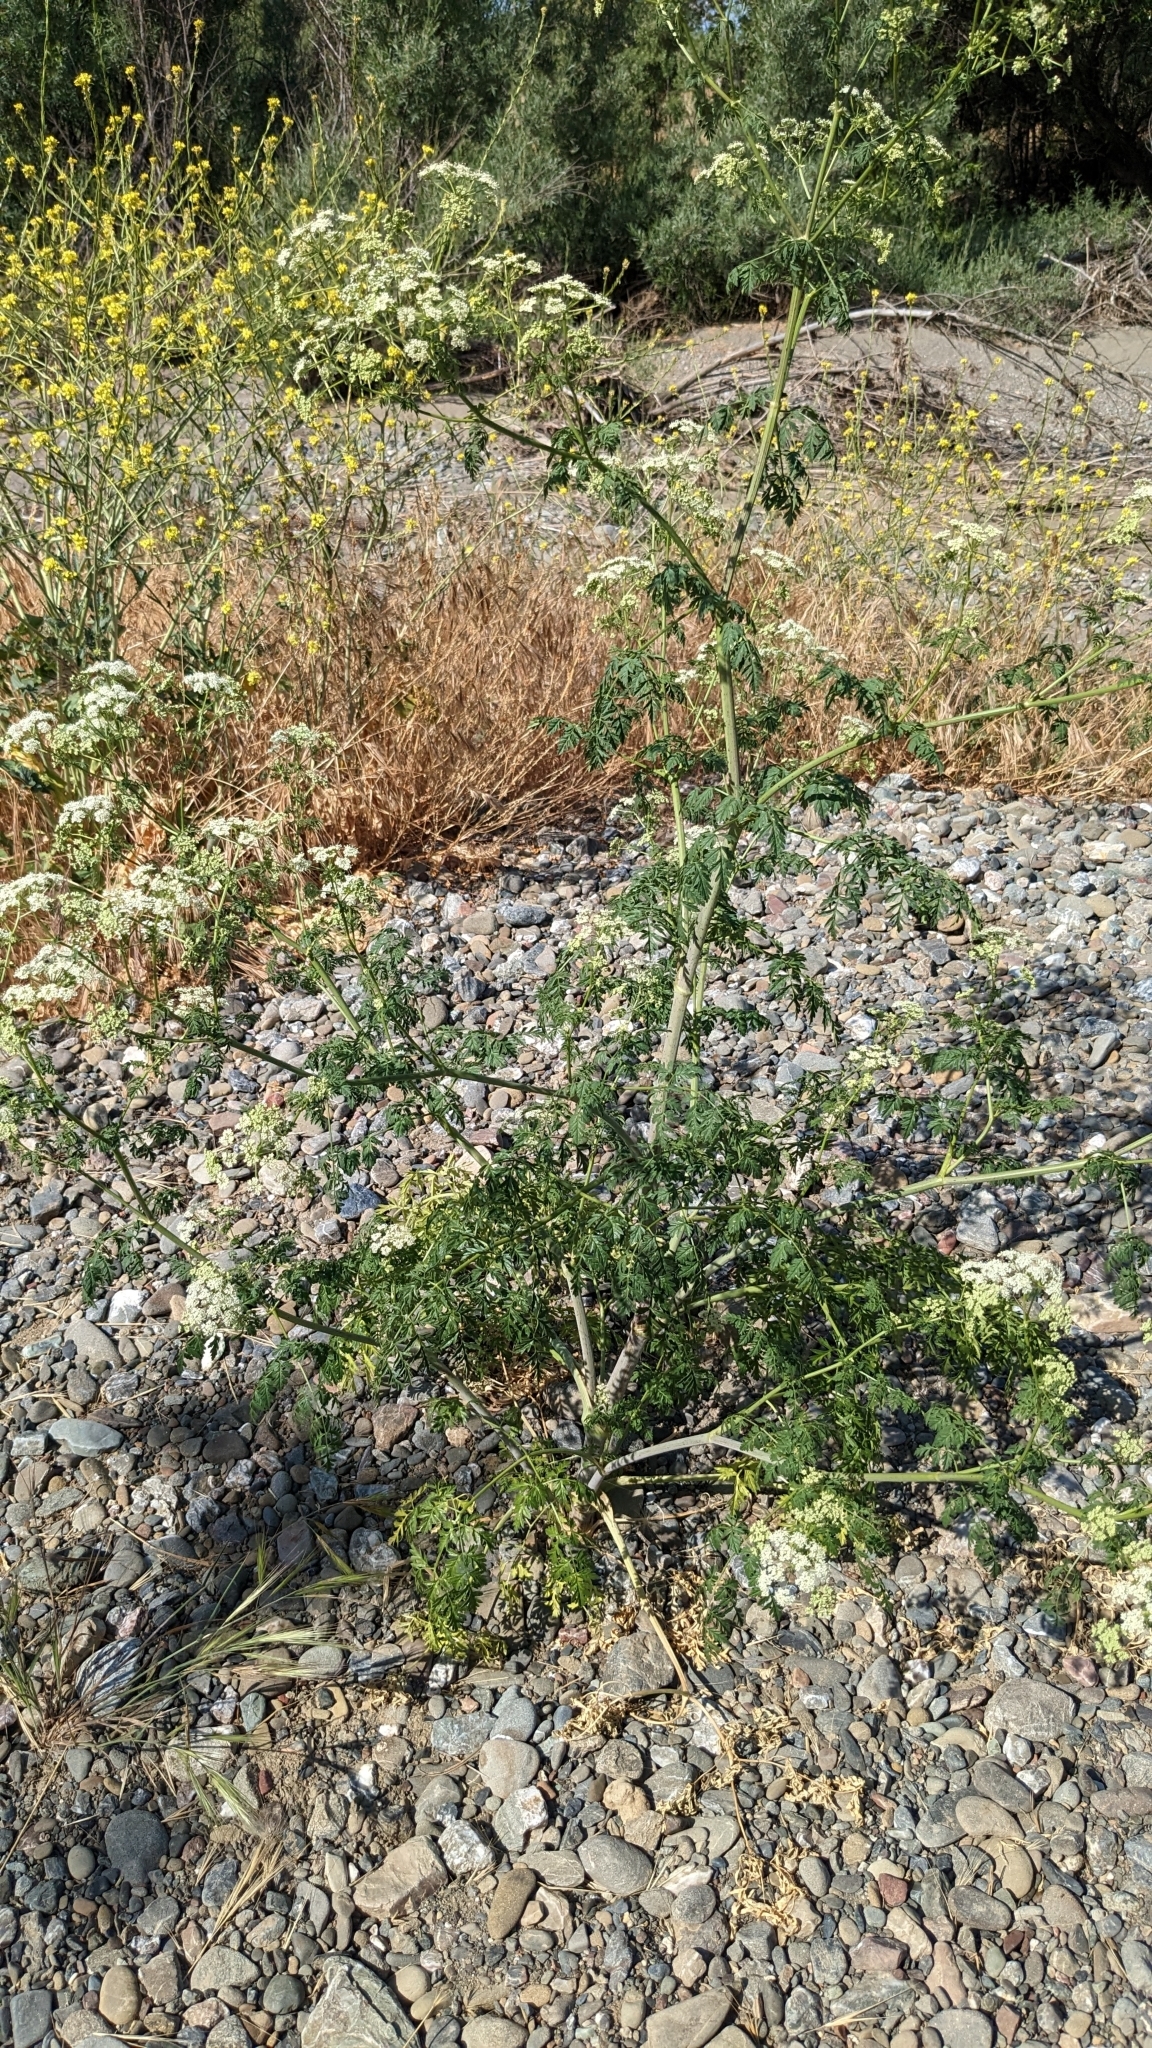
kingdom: Plantae
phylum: Tracheophyta
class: Magnoliopsida
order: Apiales
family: Apiaceae
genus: Conium
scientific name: Conium maculatum
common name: Hemlock
